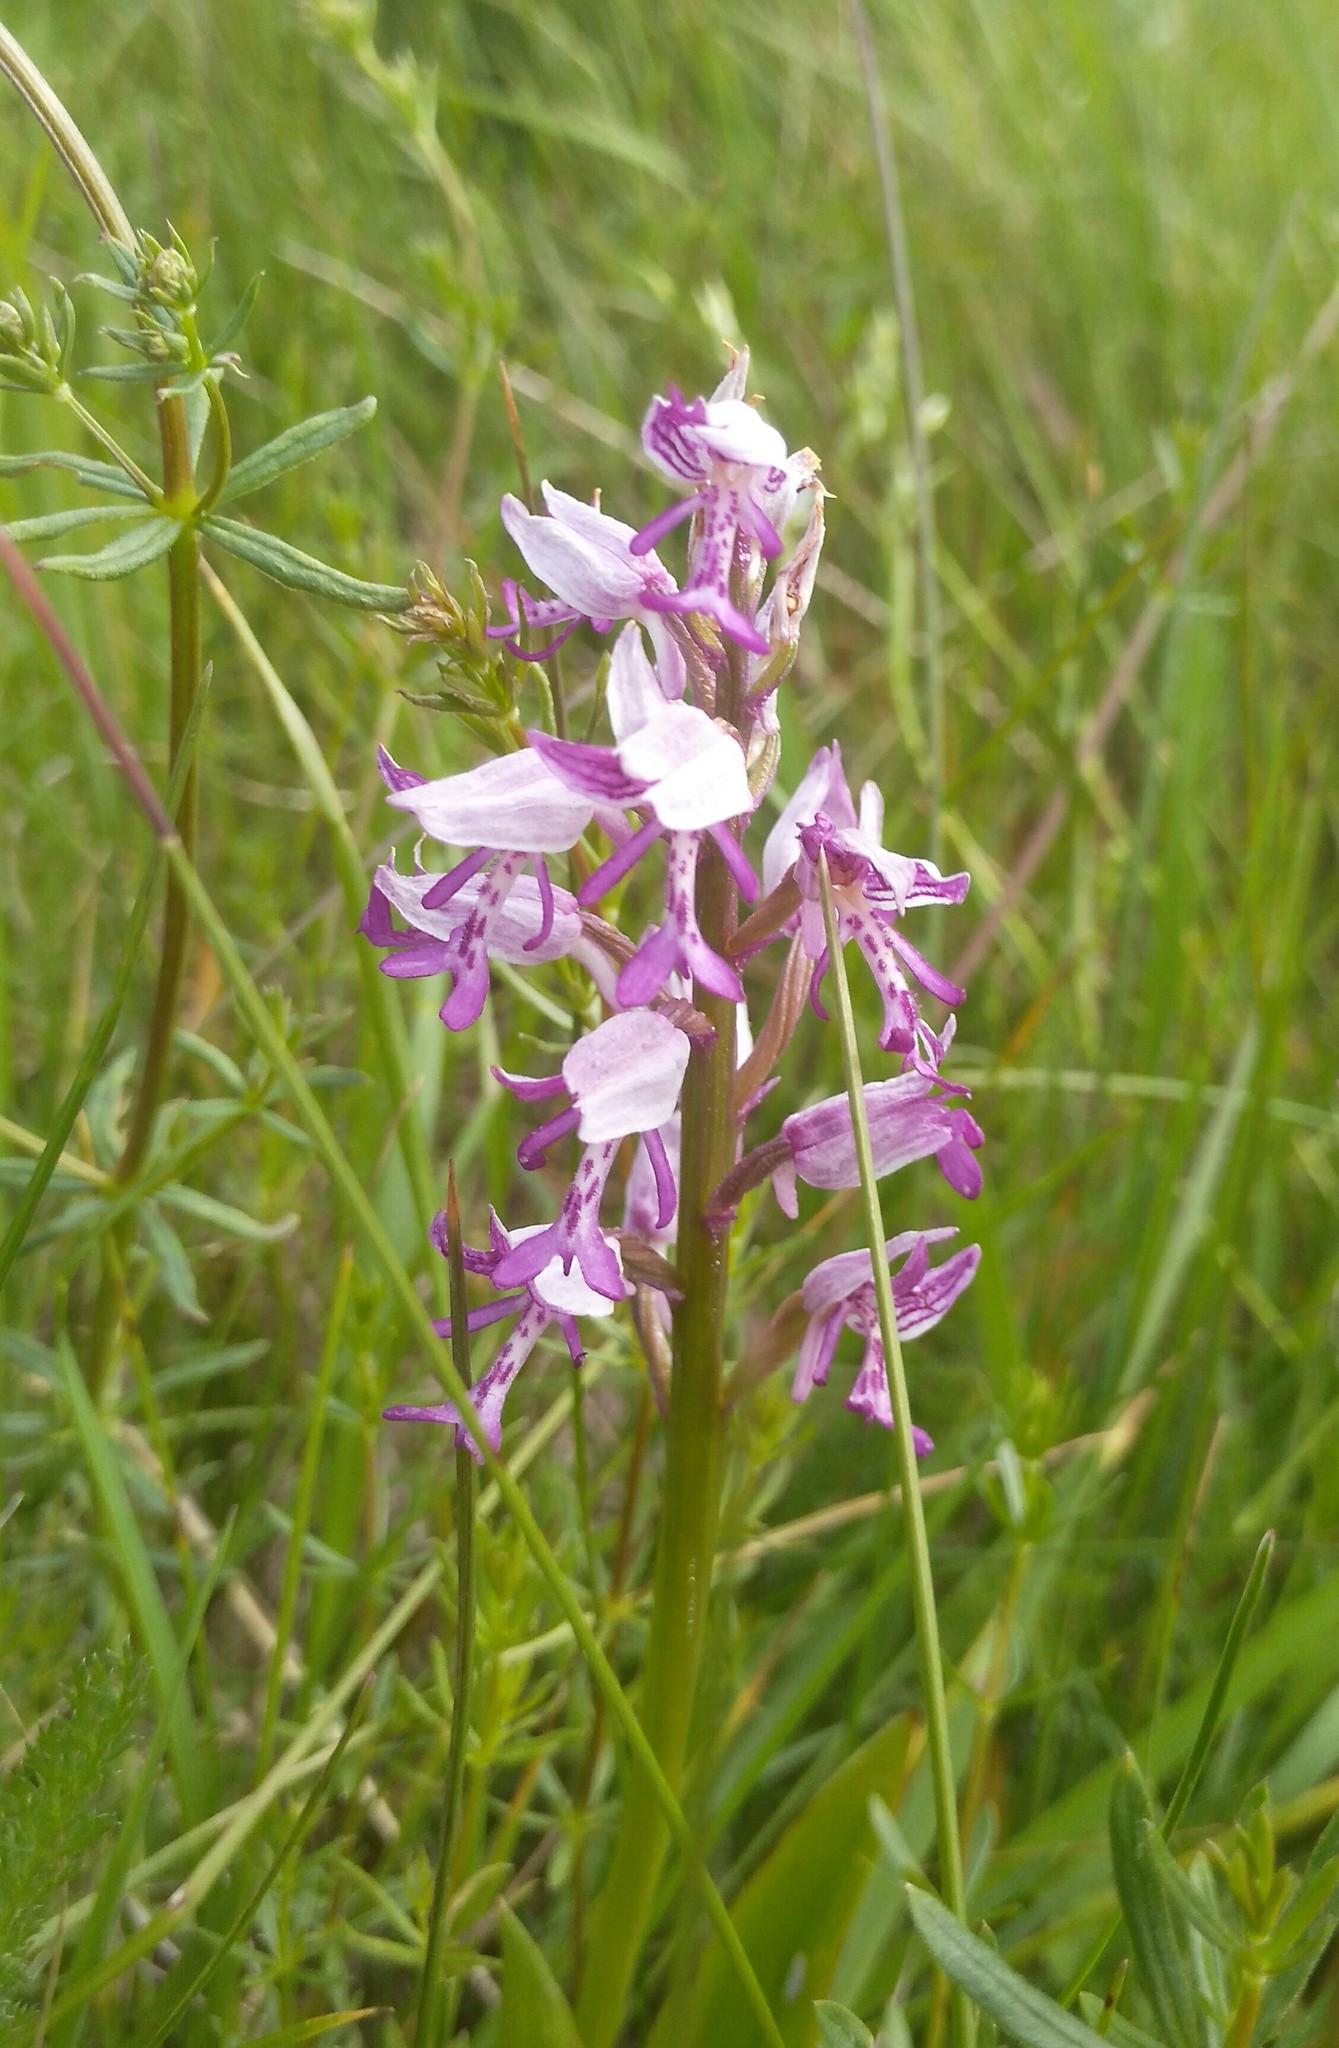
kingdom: Plantae
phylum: Tracheophyta
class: Liliopsida
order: Asparagales
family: Orchidaceae
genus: Orchis
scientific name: Orchis militaris
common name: Military orchid
